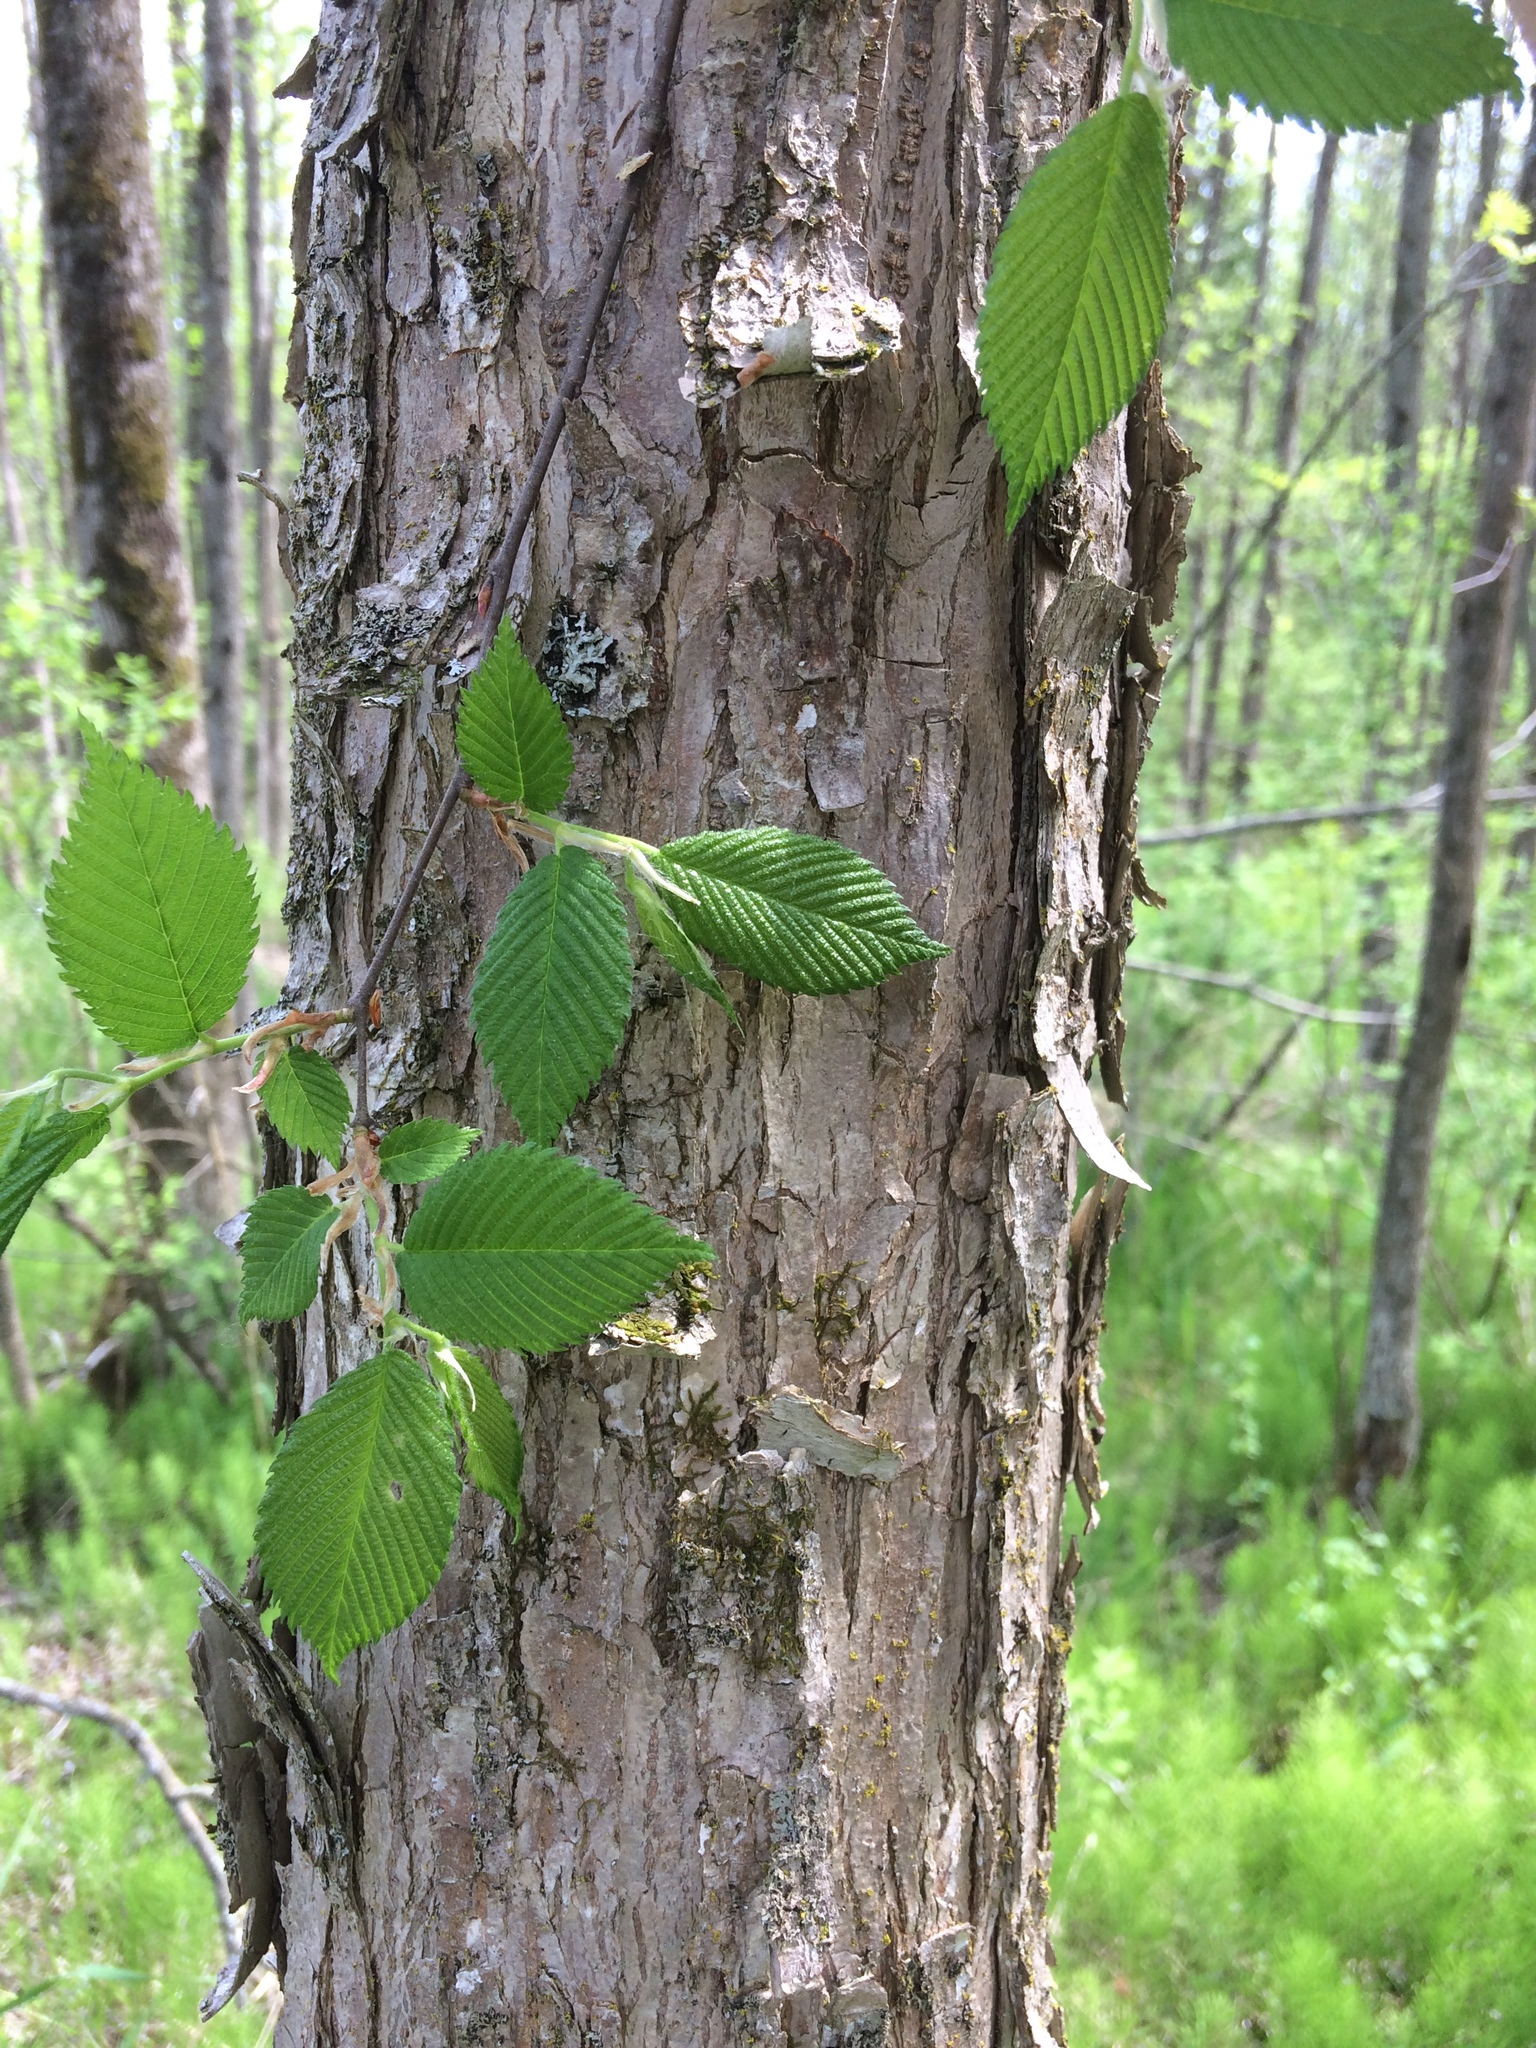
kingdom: Plantae
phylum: Tracheophyta
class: Magnoliopsida
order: Rosales
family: Ulmaceae
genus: Ulmus
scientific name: Ulmus americana
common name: American elm
